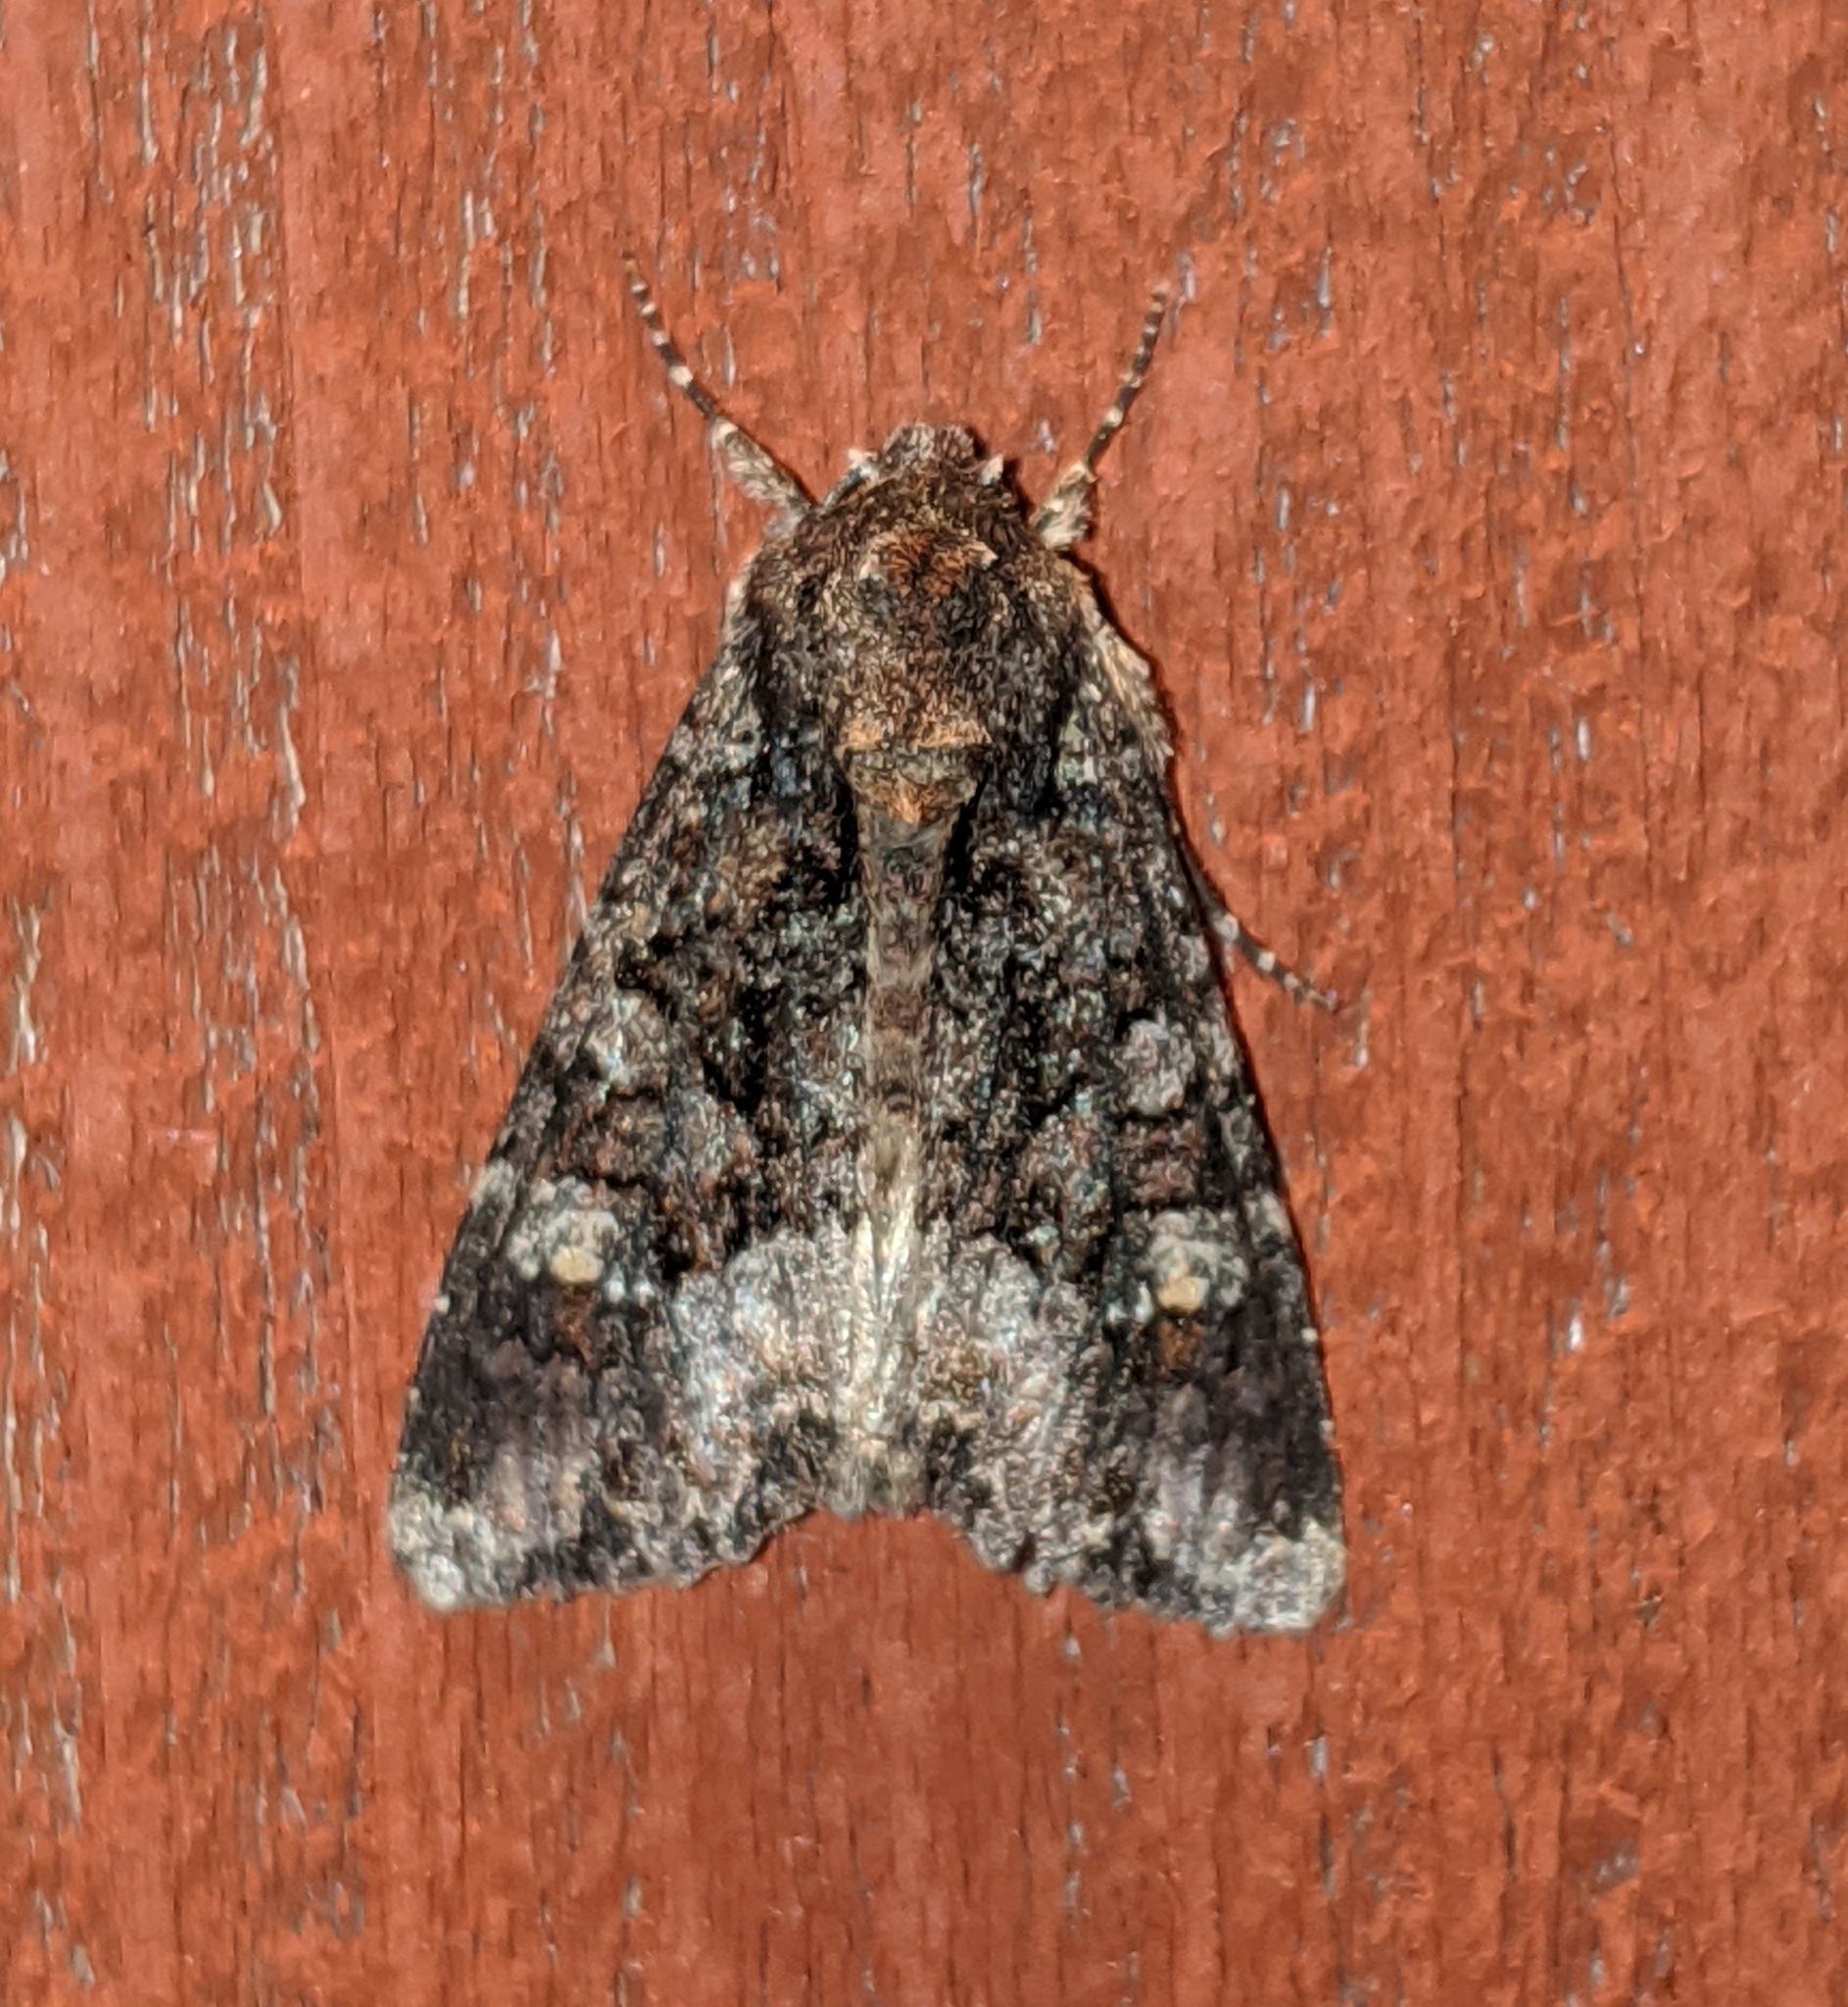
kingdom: Animalia
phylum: Arthropoda
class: Insecta
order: Lepidoptera
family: Noctuidae
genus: Apamea
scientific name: Apamea amputatrix
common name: Yellow-headed cutworm moth
